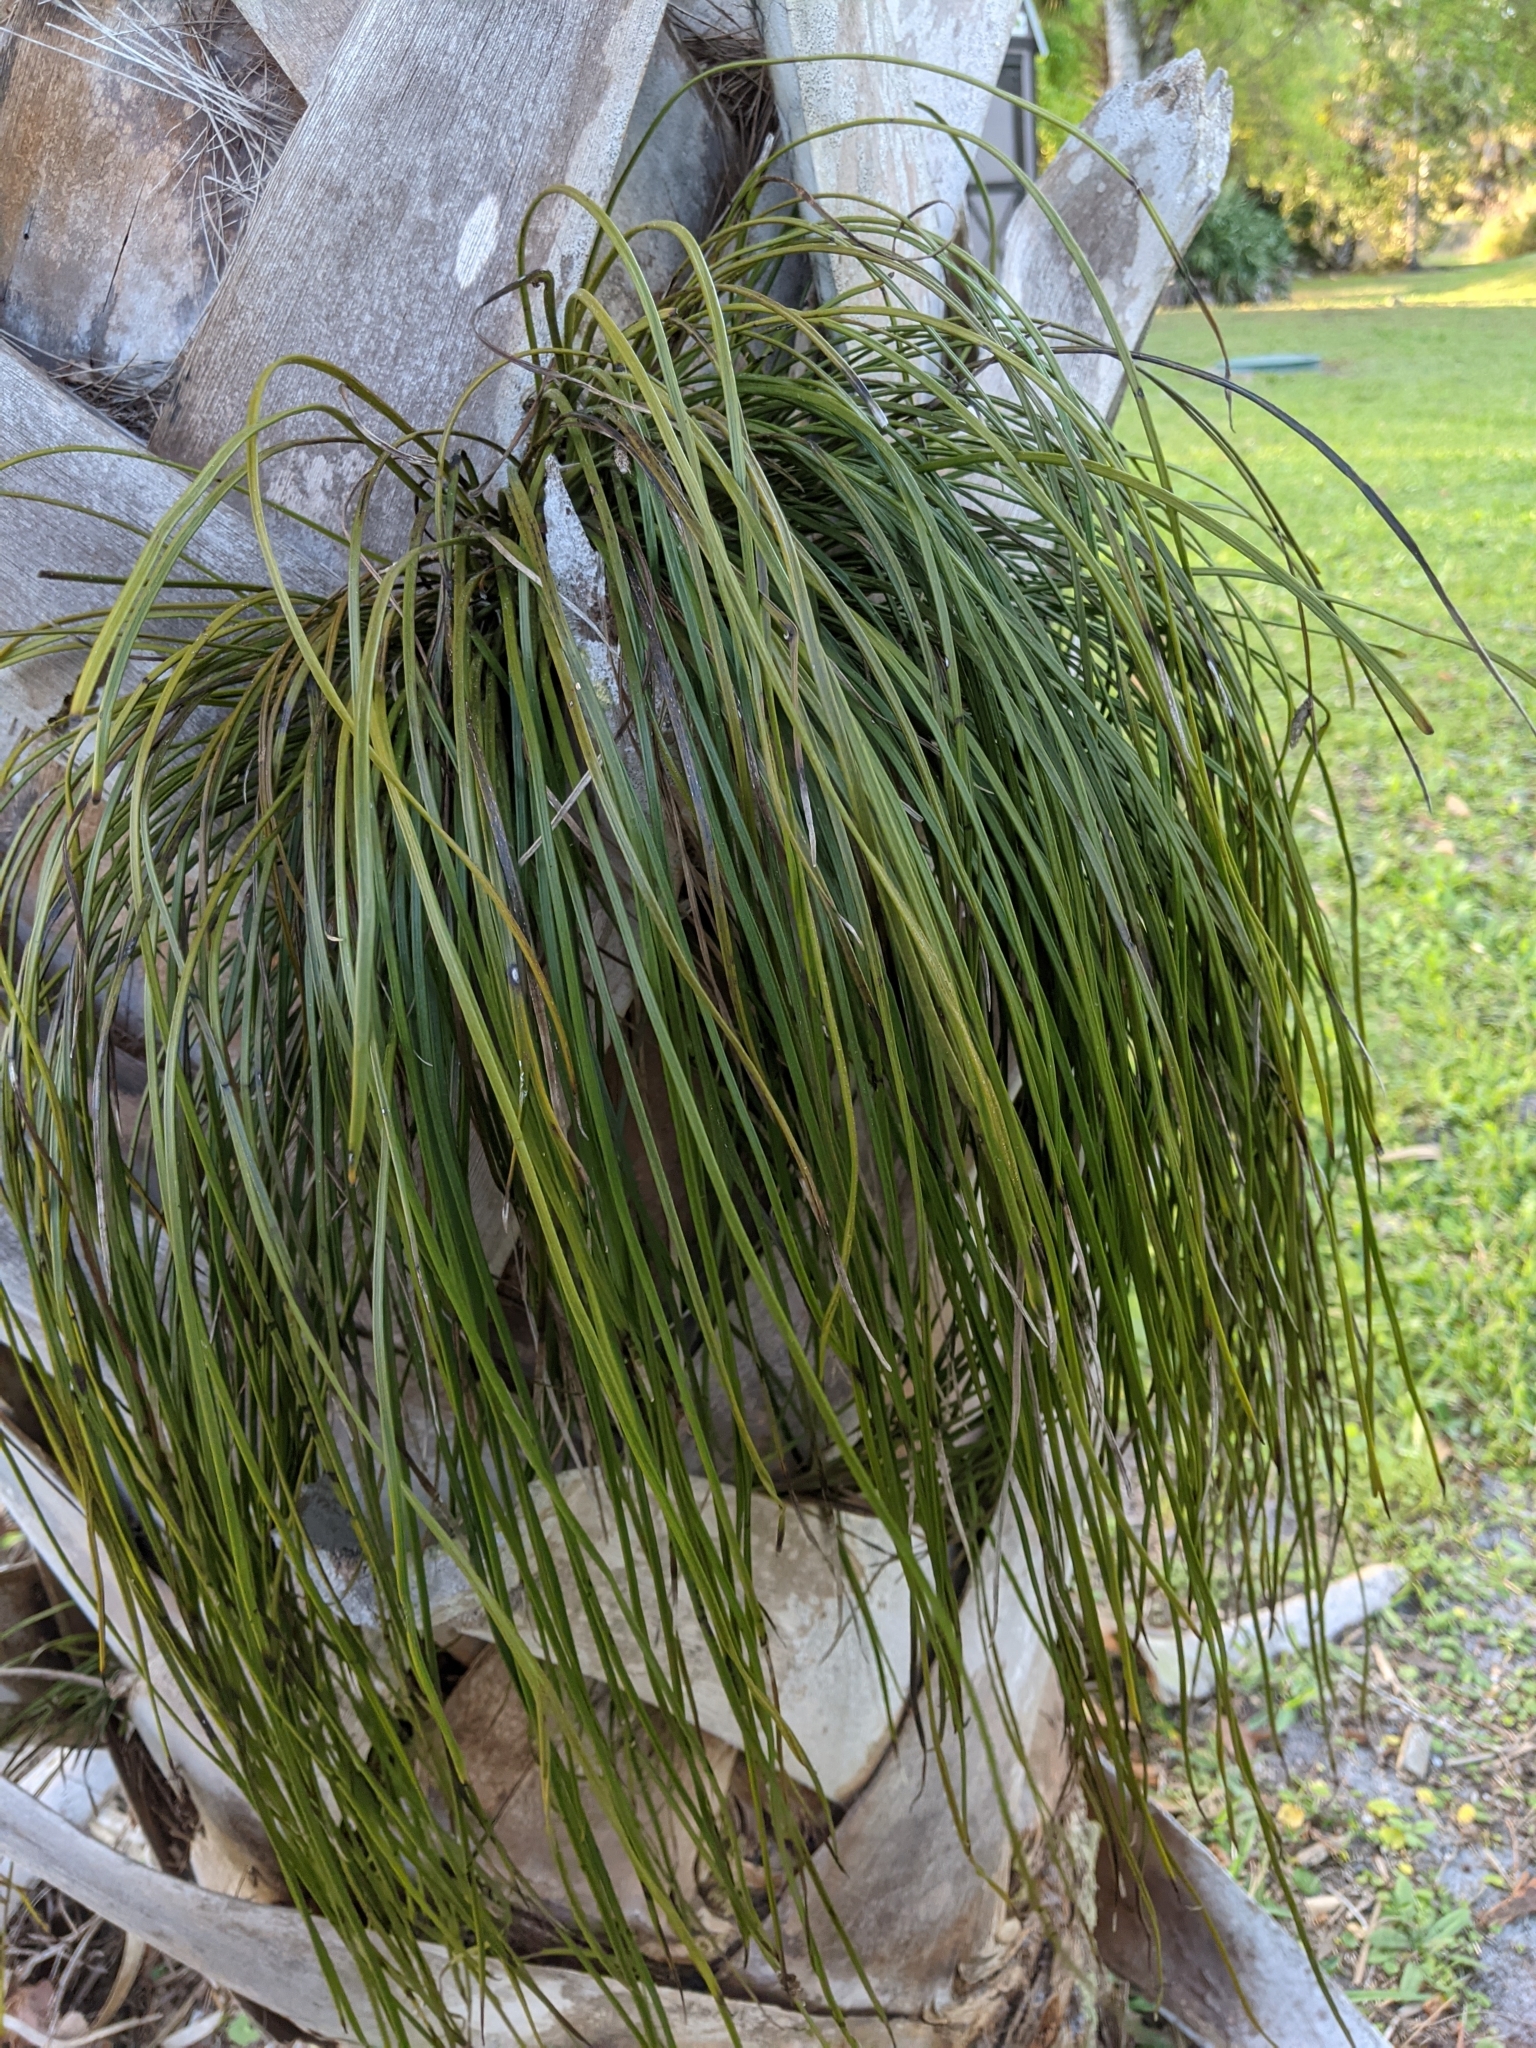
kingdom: Plantae
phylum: Tracheophyta
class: Polypodiopsida
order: Polypodiales
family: Pteridaceae
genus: Vittaria
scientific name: Vittaria lineata
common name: Shoestring fern
